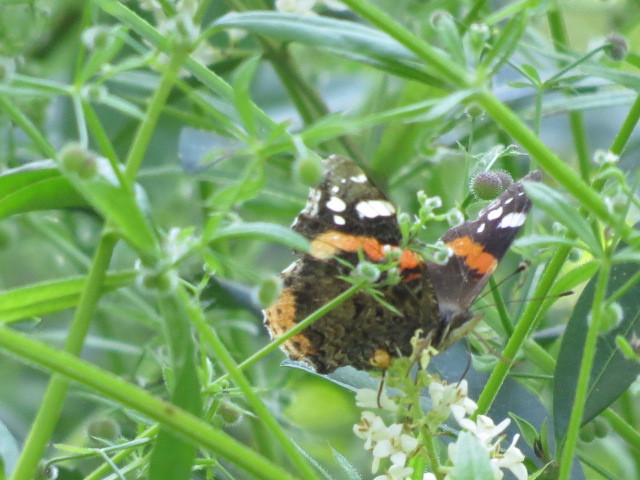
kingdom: Animalia
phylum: Arthropoda
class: Insecta
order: Lepidoptera
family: Nymphalidae
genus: Vanessa
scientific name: Vanessa atalanta
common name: Red admiral
